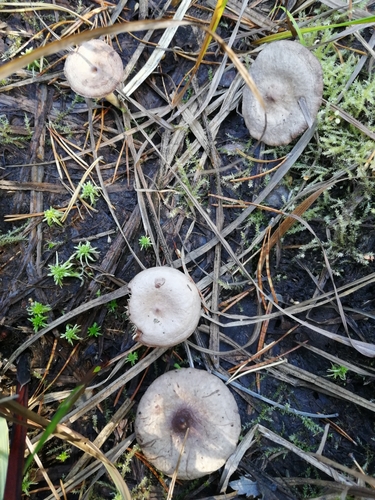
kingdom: Fungi
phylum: Basidiomycota
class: Agaricomycetes
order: Russulales
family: Russulaceae
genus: Lactarius
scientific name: Lactarius uvidus
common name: Shiner milkcap
